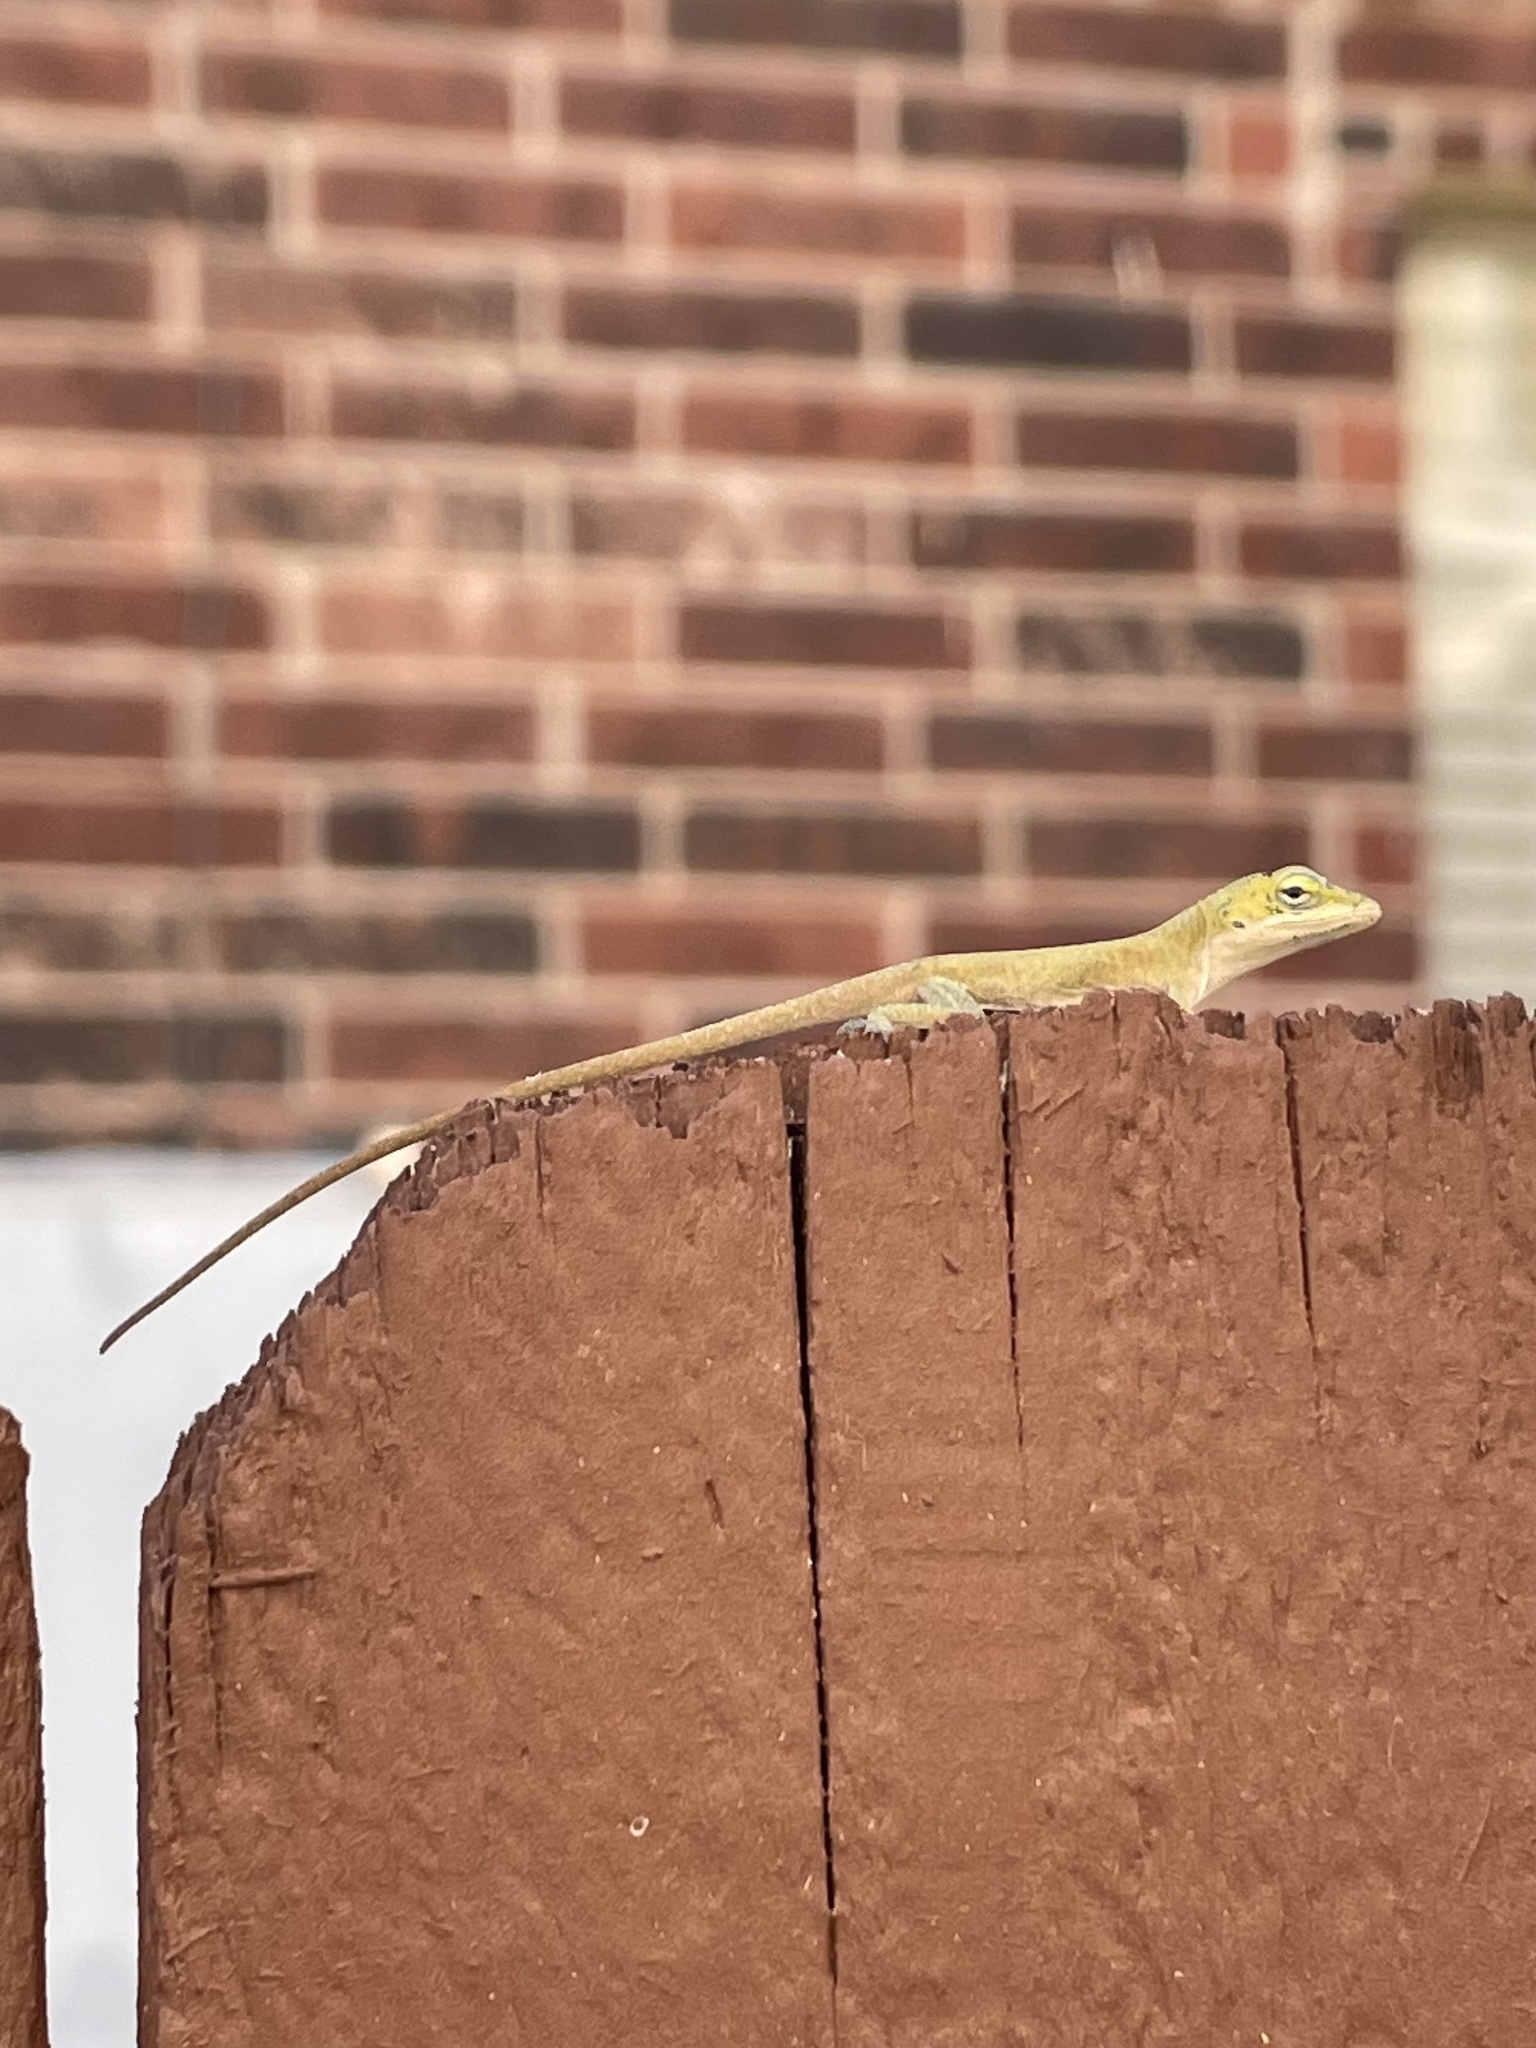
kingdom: Animalia
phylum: Chordata
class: Squamata
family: Dactyloidae
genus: Anolis
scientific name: Anolis carolinensis
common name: Green anole
